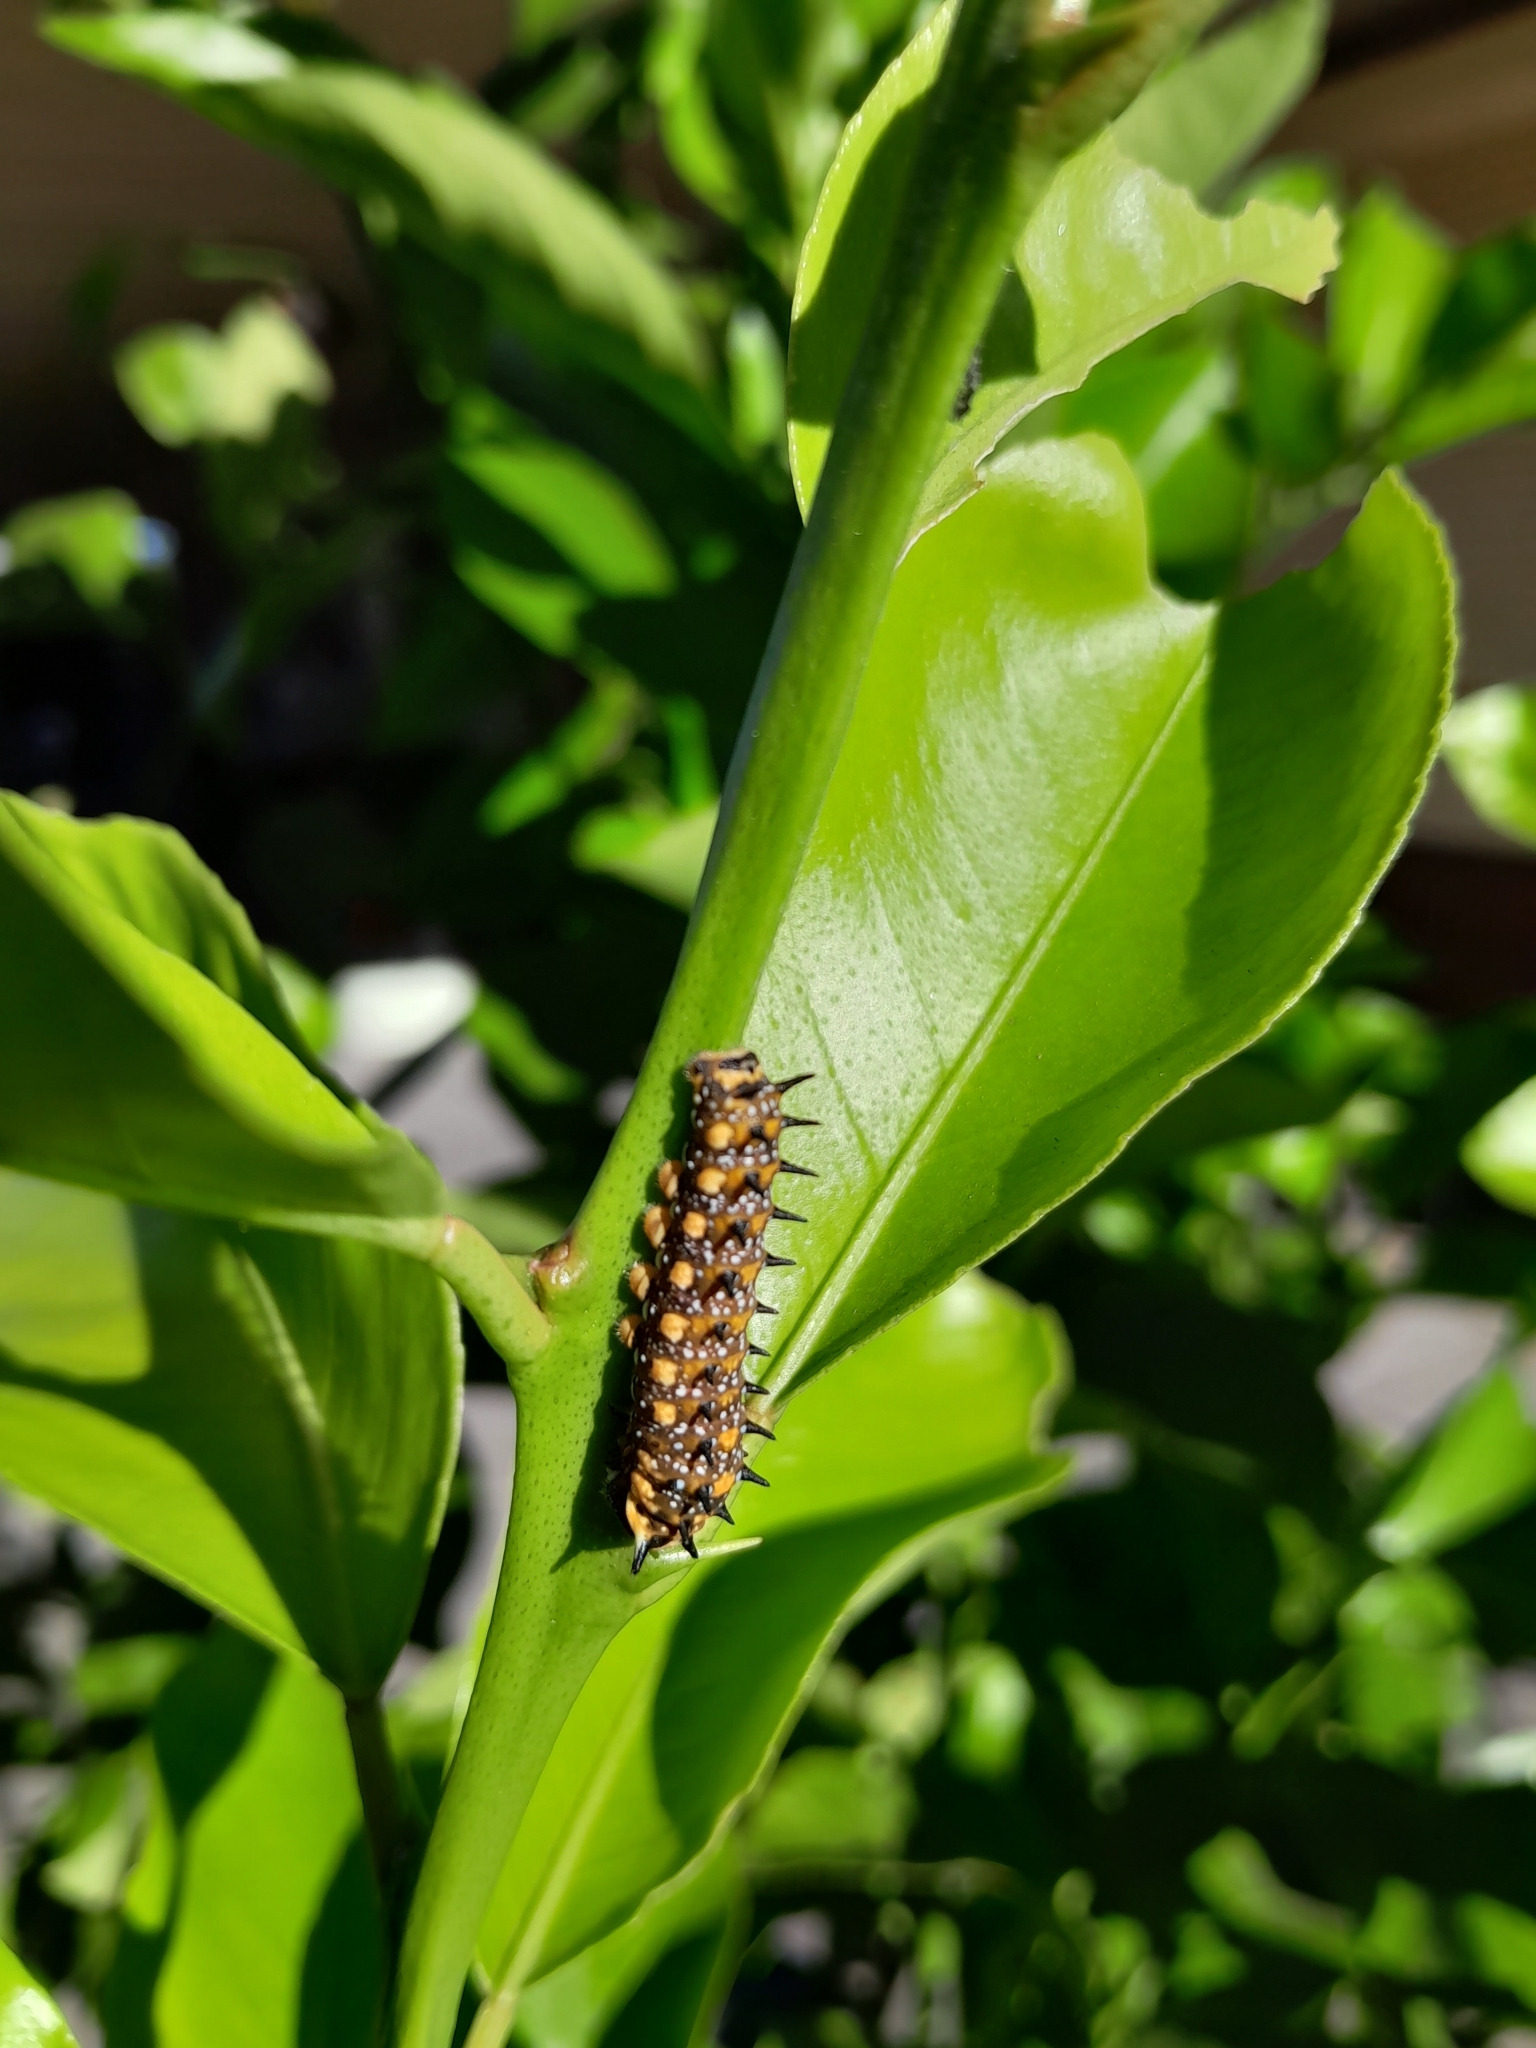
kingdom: Animalia
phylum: Arthropoda
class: Insecta
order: Lepidoptera
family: Papilionidae
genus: Papilio
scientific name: Papilio anactus
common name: Dingy swallowtail
